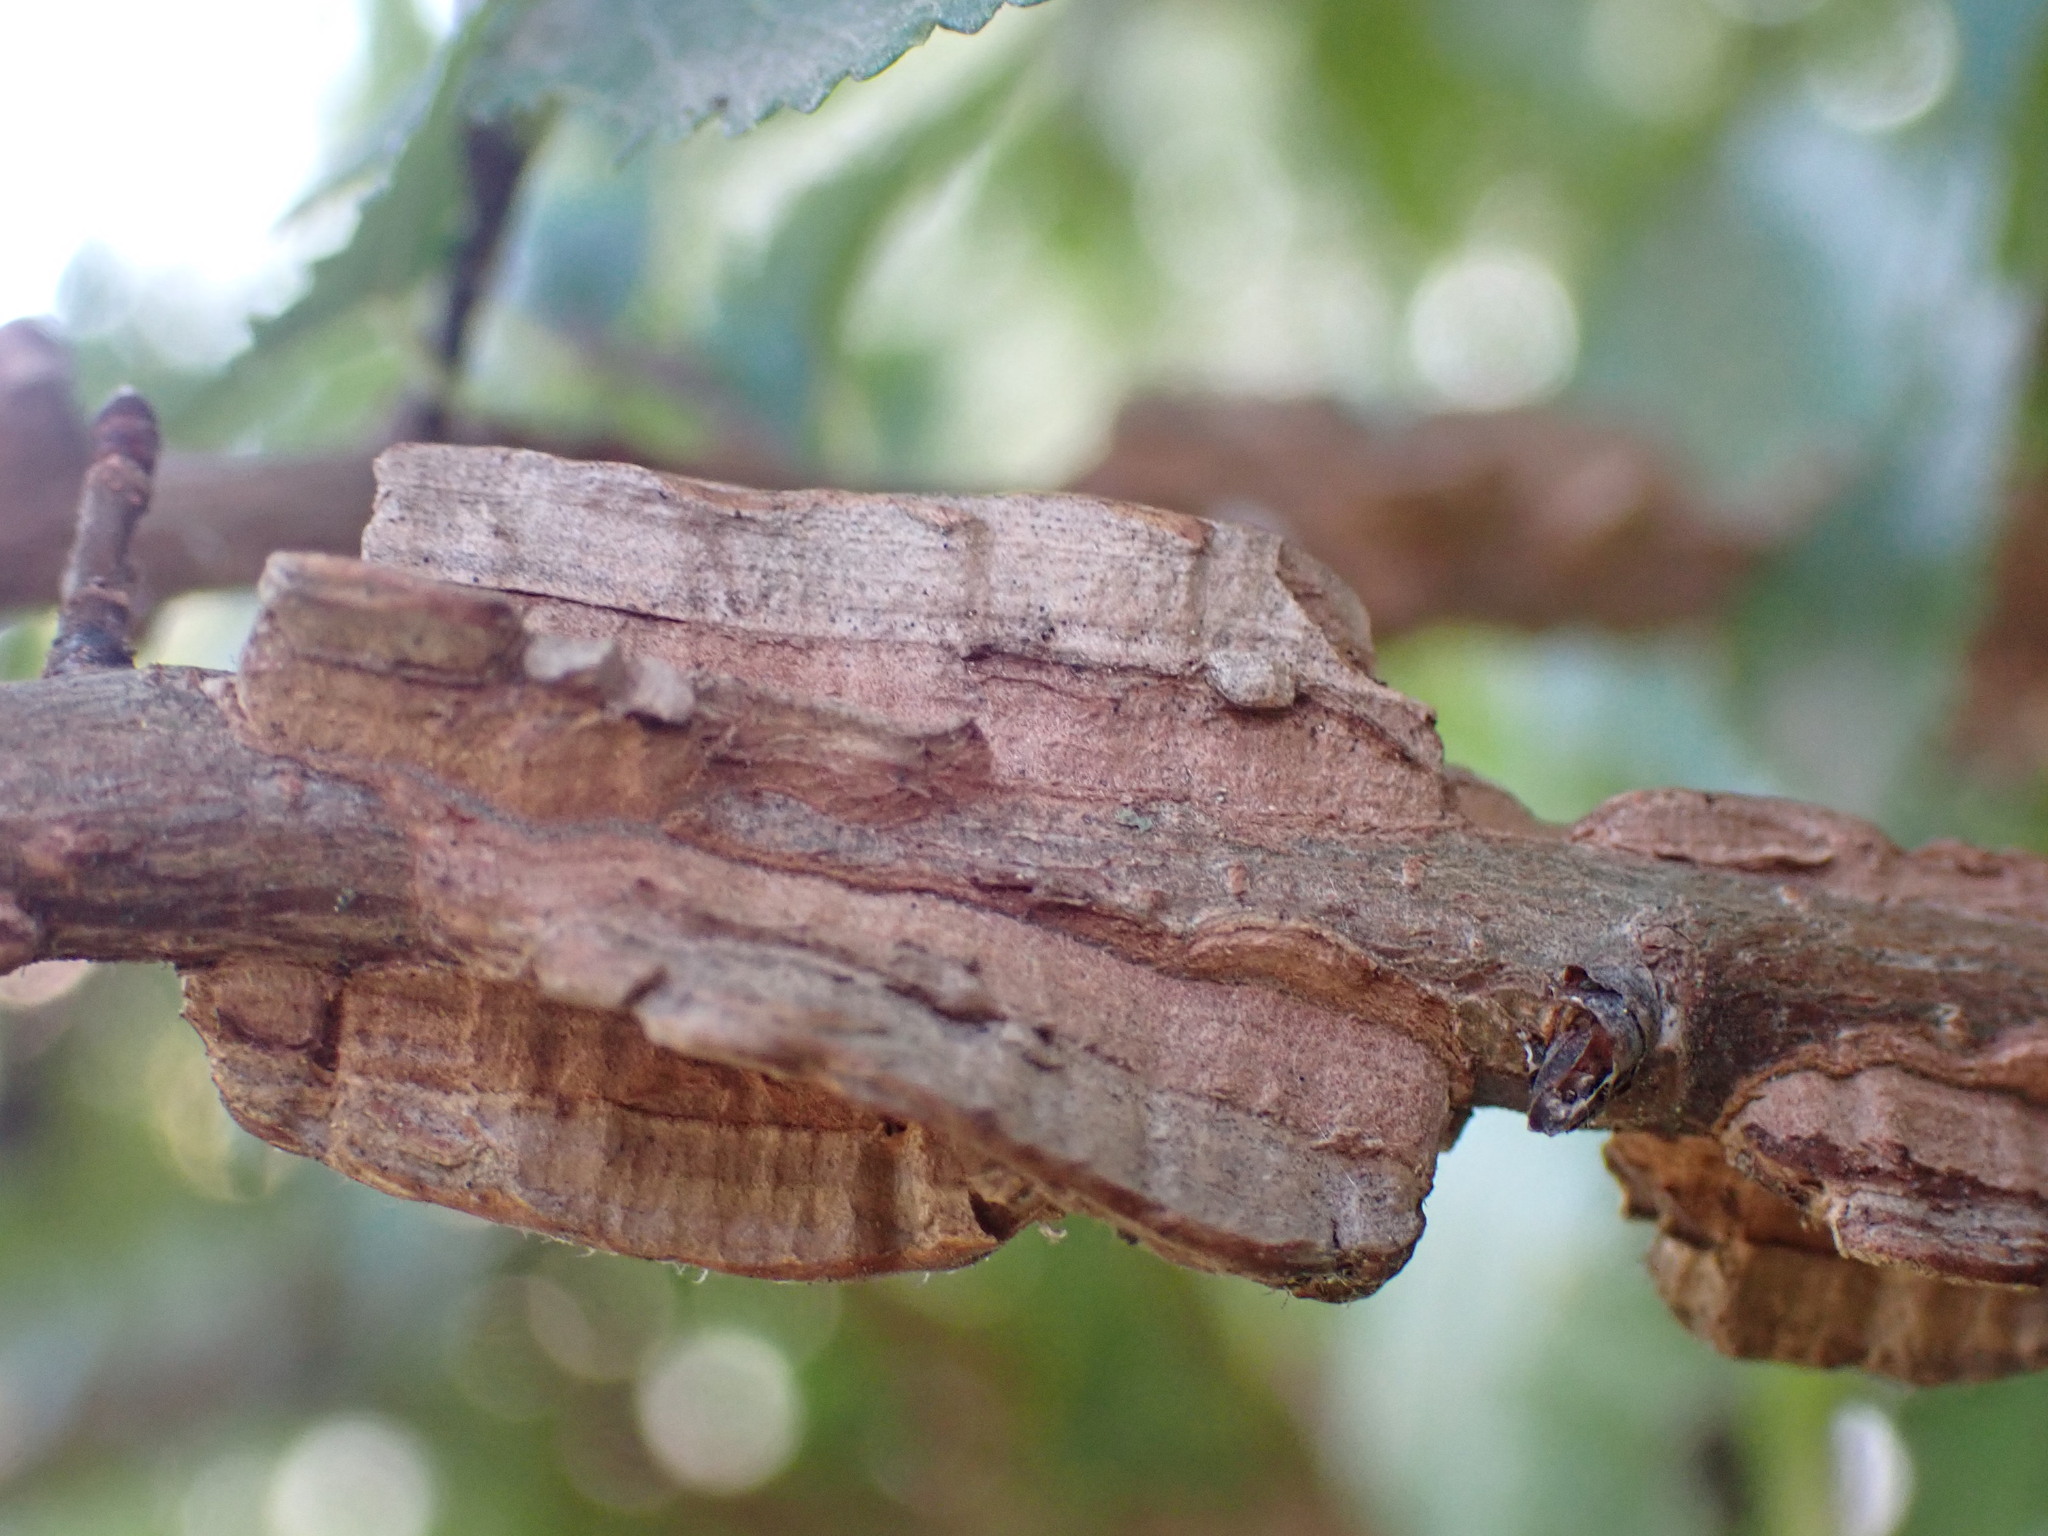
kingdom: Plantae
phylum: Tracheophyta
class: Magnoliopsida
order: Rosales
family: Ulmaceae
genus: Ulmus
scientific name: Ulmus minor
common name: Small-leaved elm
